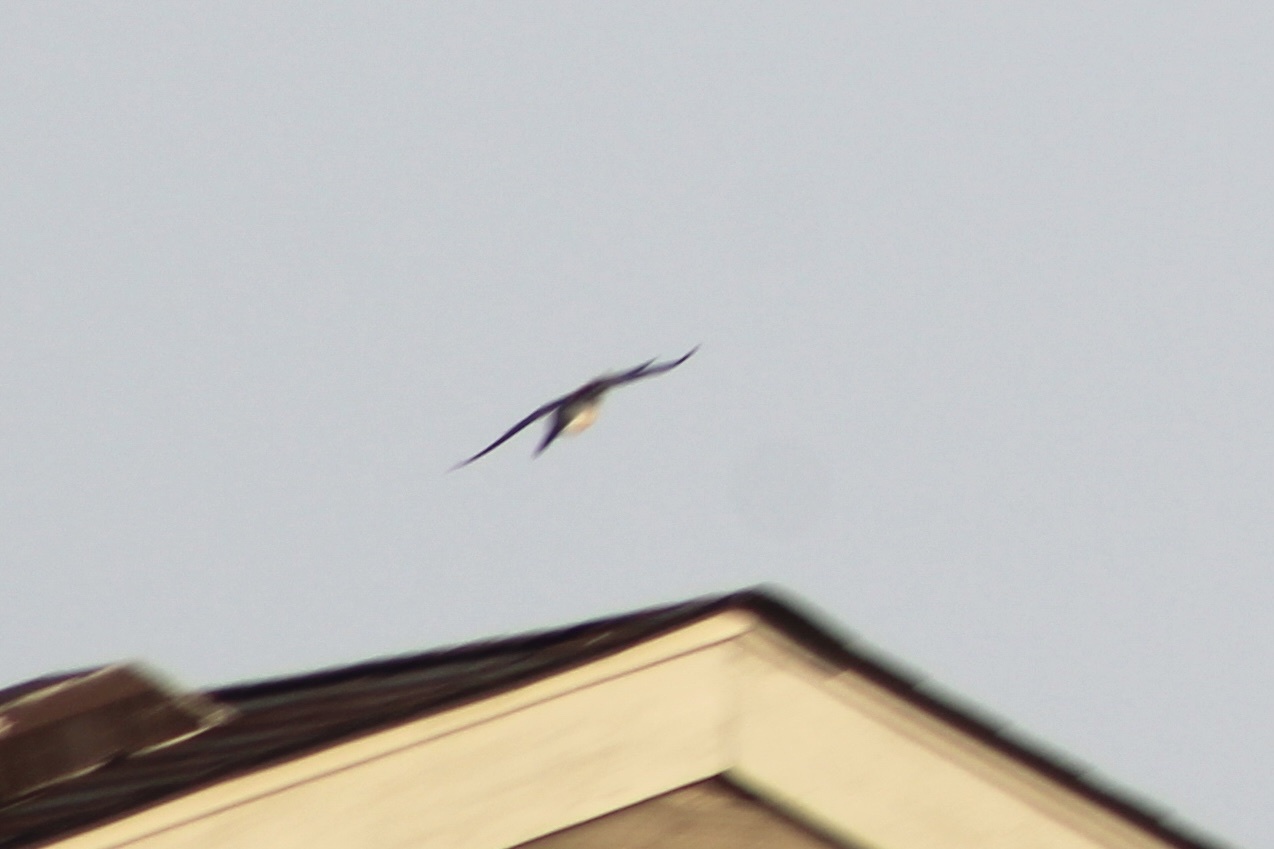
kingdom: Animalia
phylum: Chordata
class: Aves
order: Passeriformes
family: Hirundinidae
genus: Hirundo
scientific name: Hirundo rustica
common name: Barn swallow
